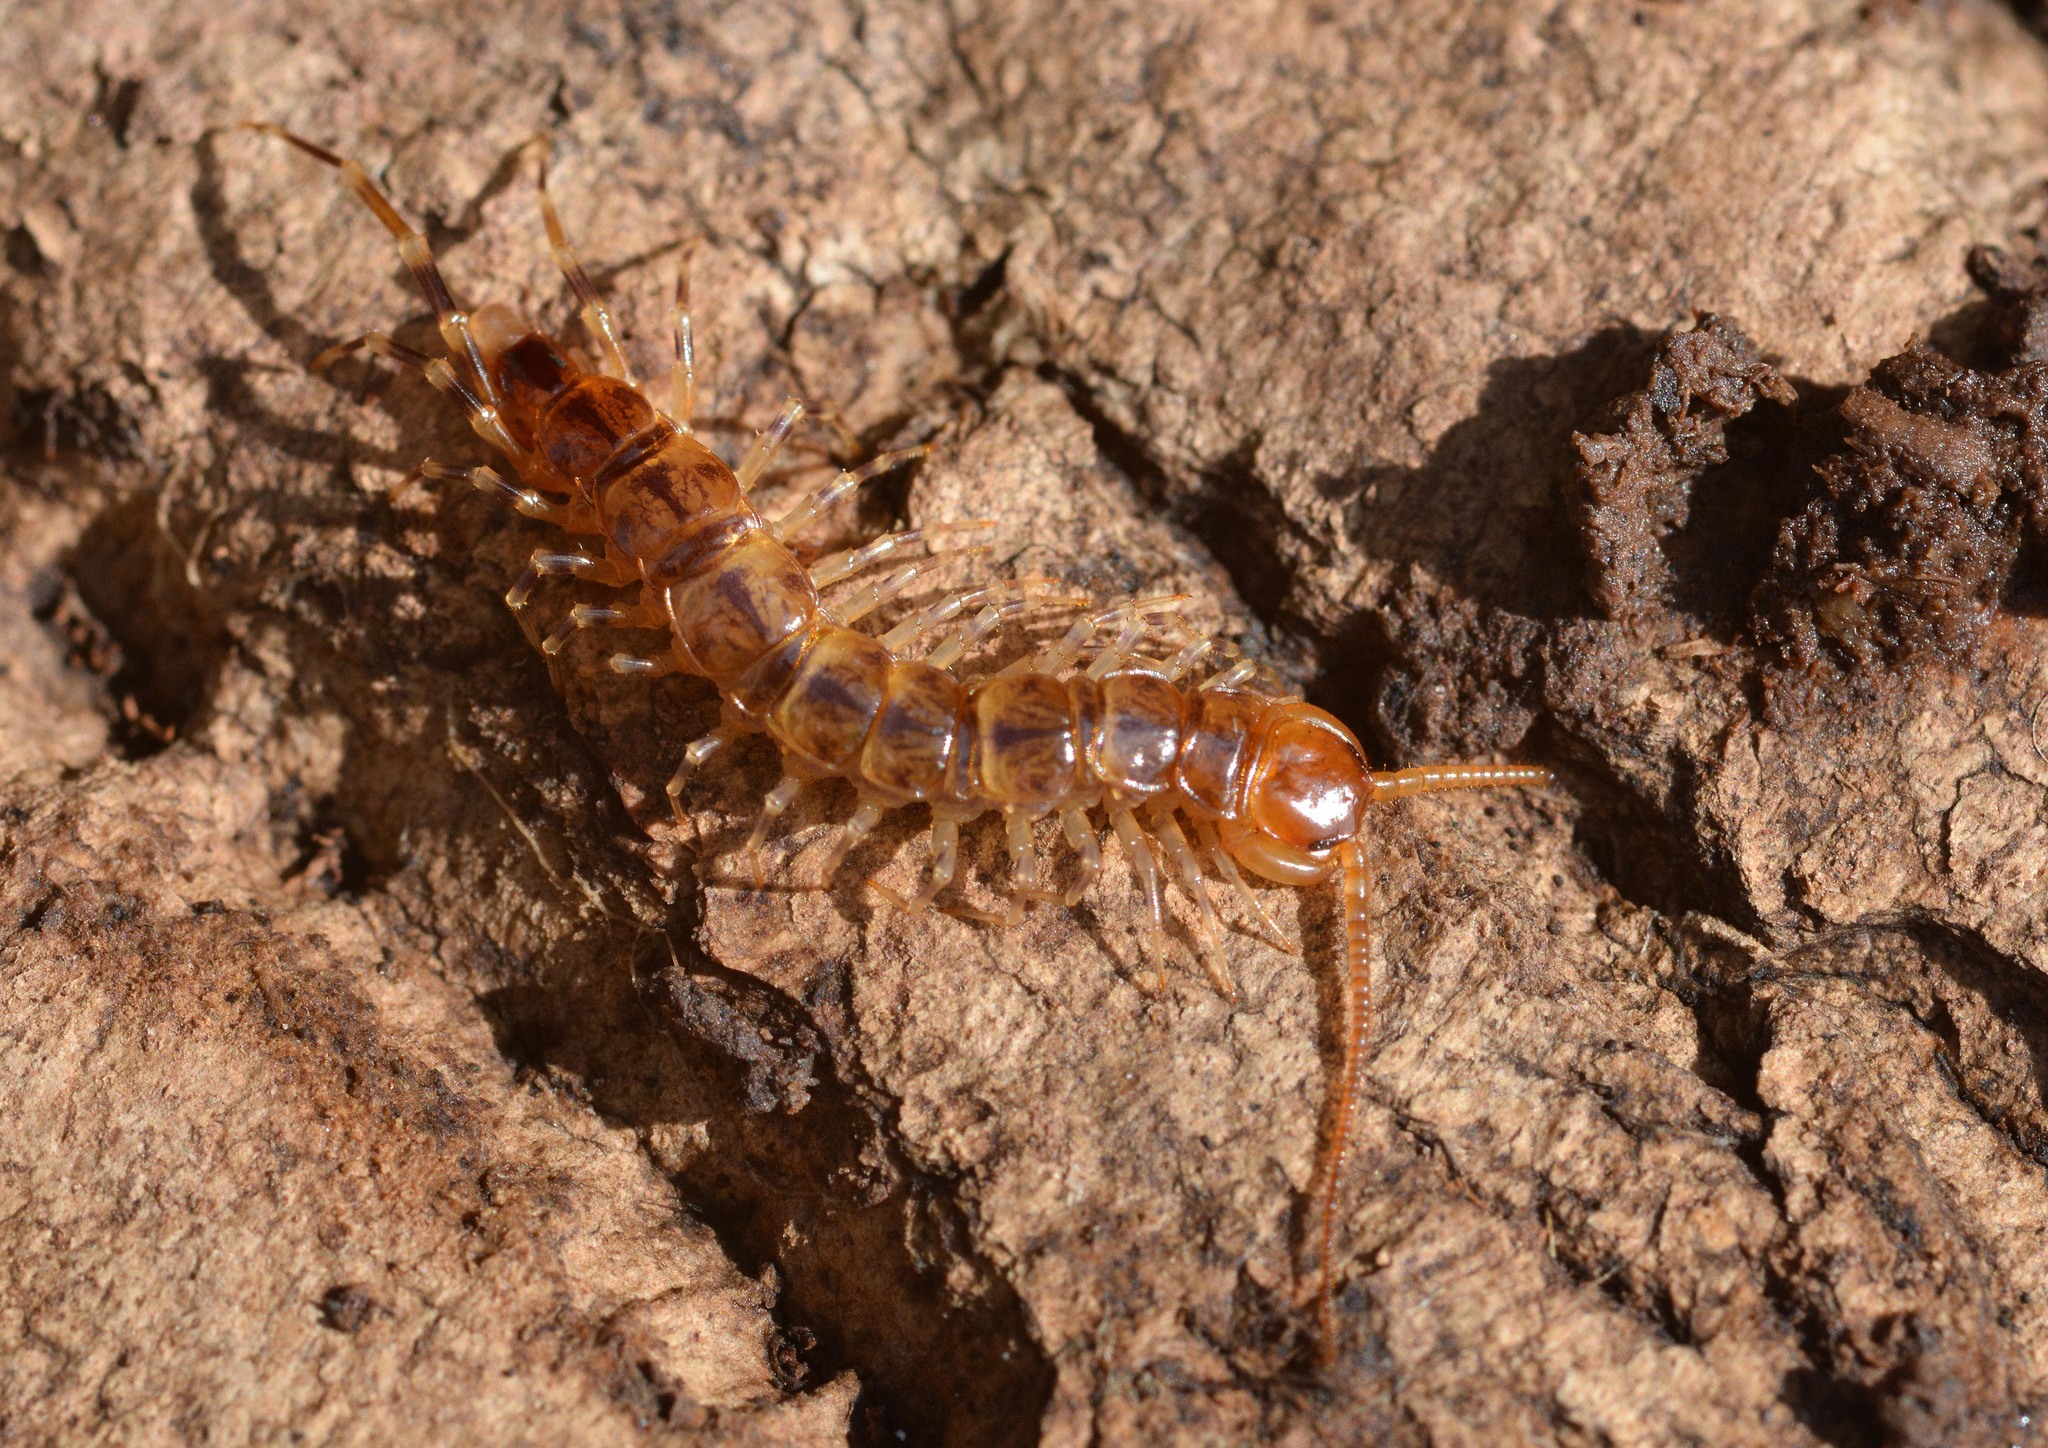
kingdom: Animalia
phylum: Arthropoda
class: Chilopoda
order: Lithobiomorpha
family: Lithobiidae
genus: Lithobius
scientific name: Lithobius variegatus
